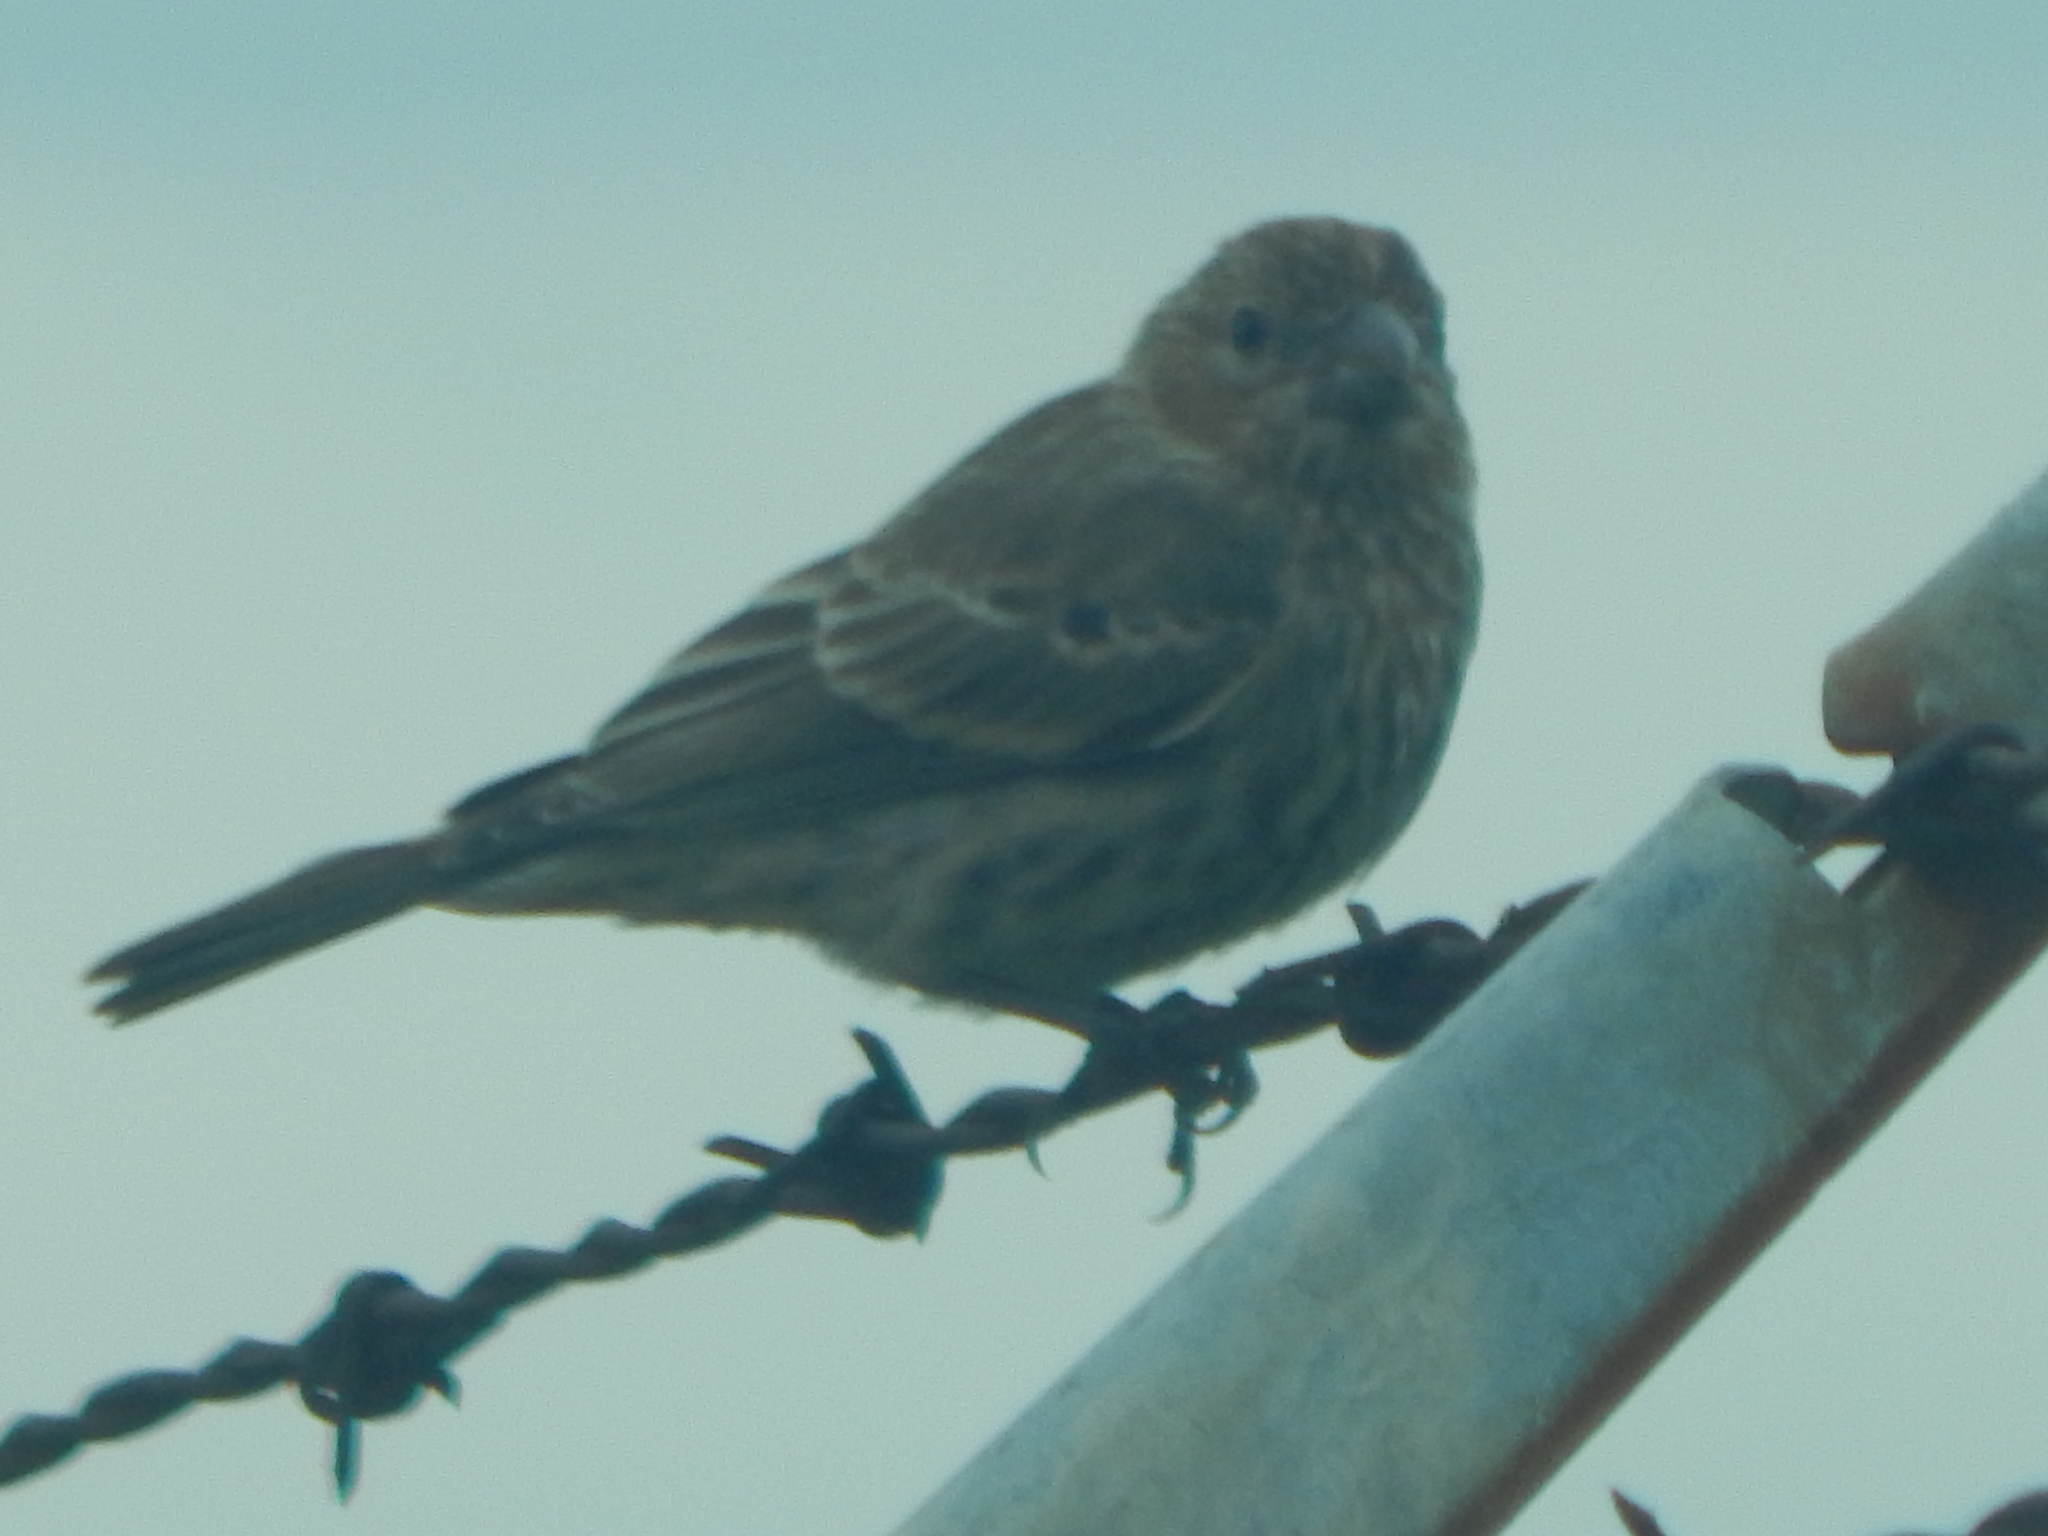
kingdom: Animalia
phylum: Chordata
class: Aves
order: Passeriformes
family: Fringillidae
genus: Haemorhous
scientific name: Haemorhous mexicanus
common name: House finch
